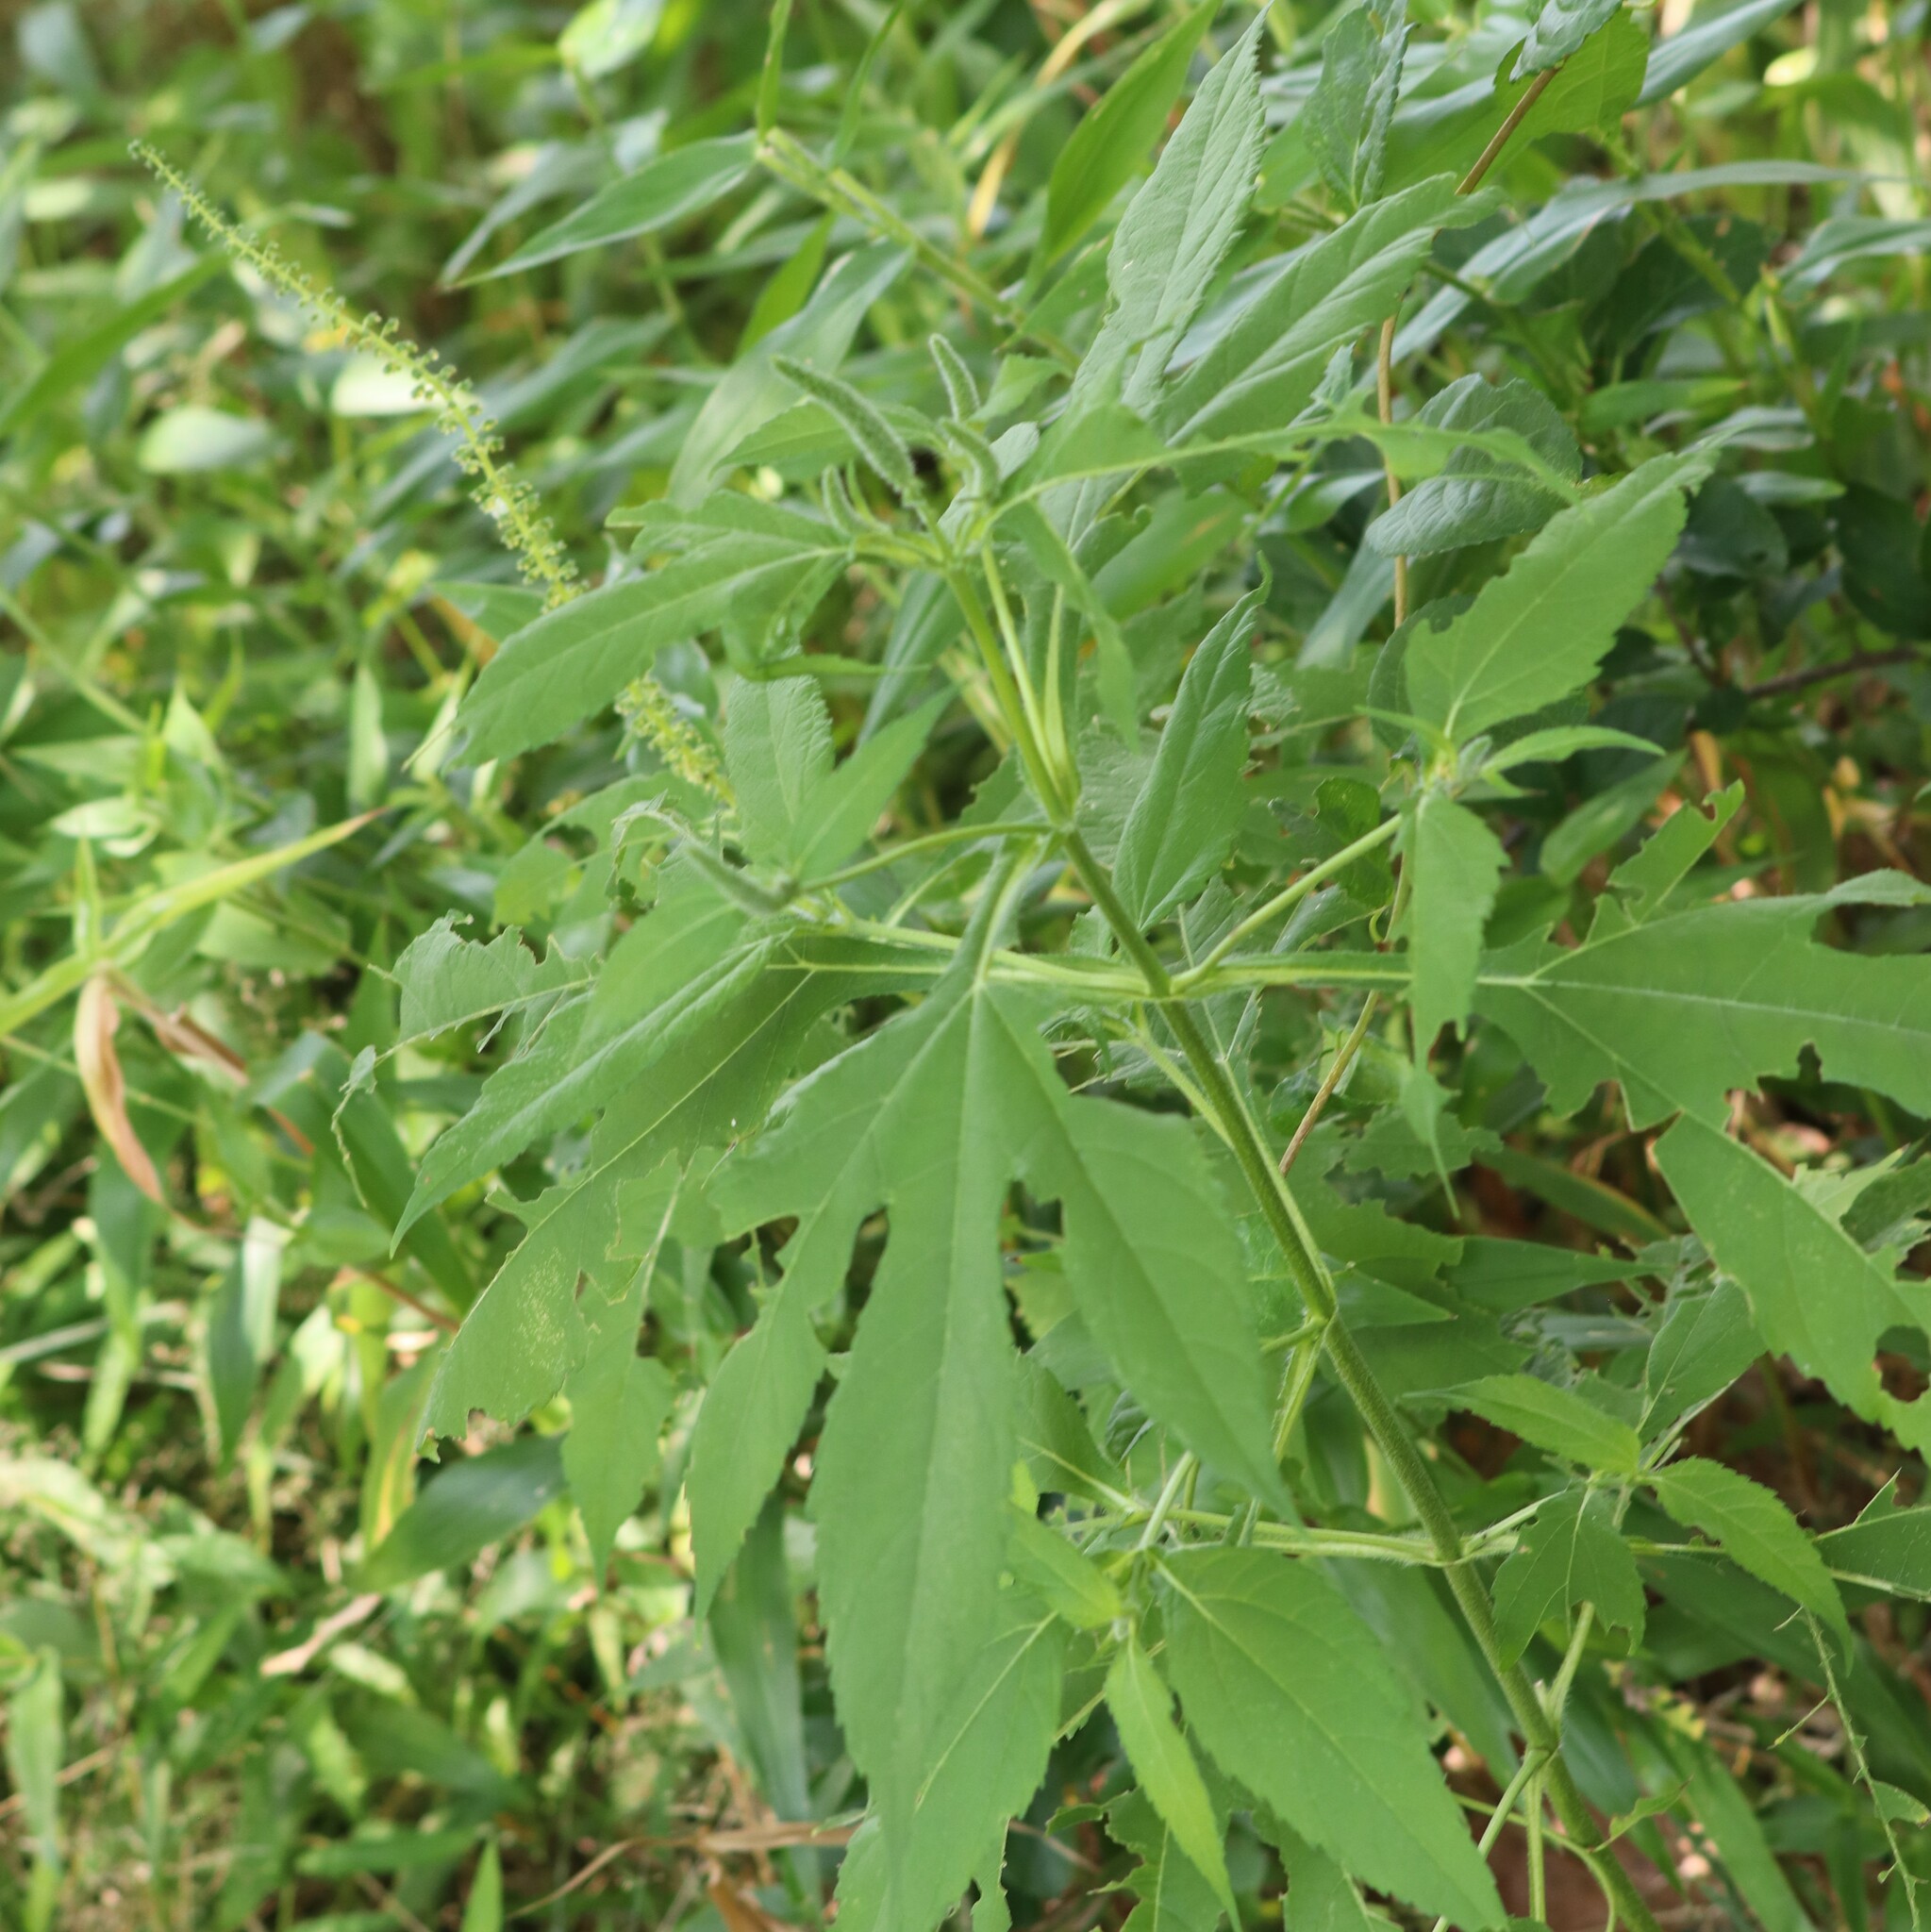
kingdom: Plantae
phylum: Tracheophyta
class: Magnoliopsida
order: Asterales
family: Asteraceae
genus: Ambrosia
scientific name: Ambrosia trifida
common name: Giant ragweed
